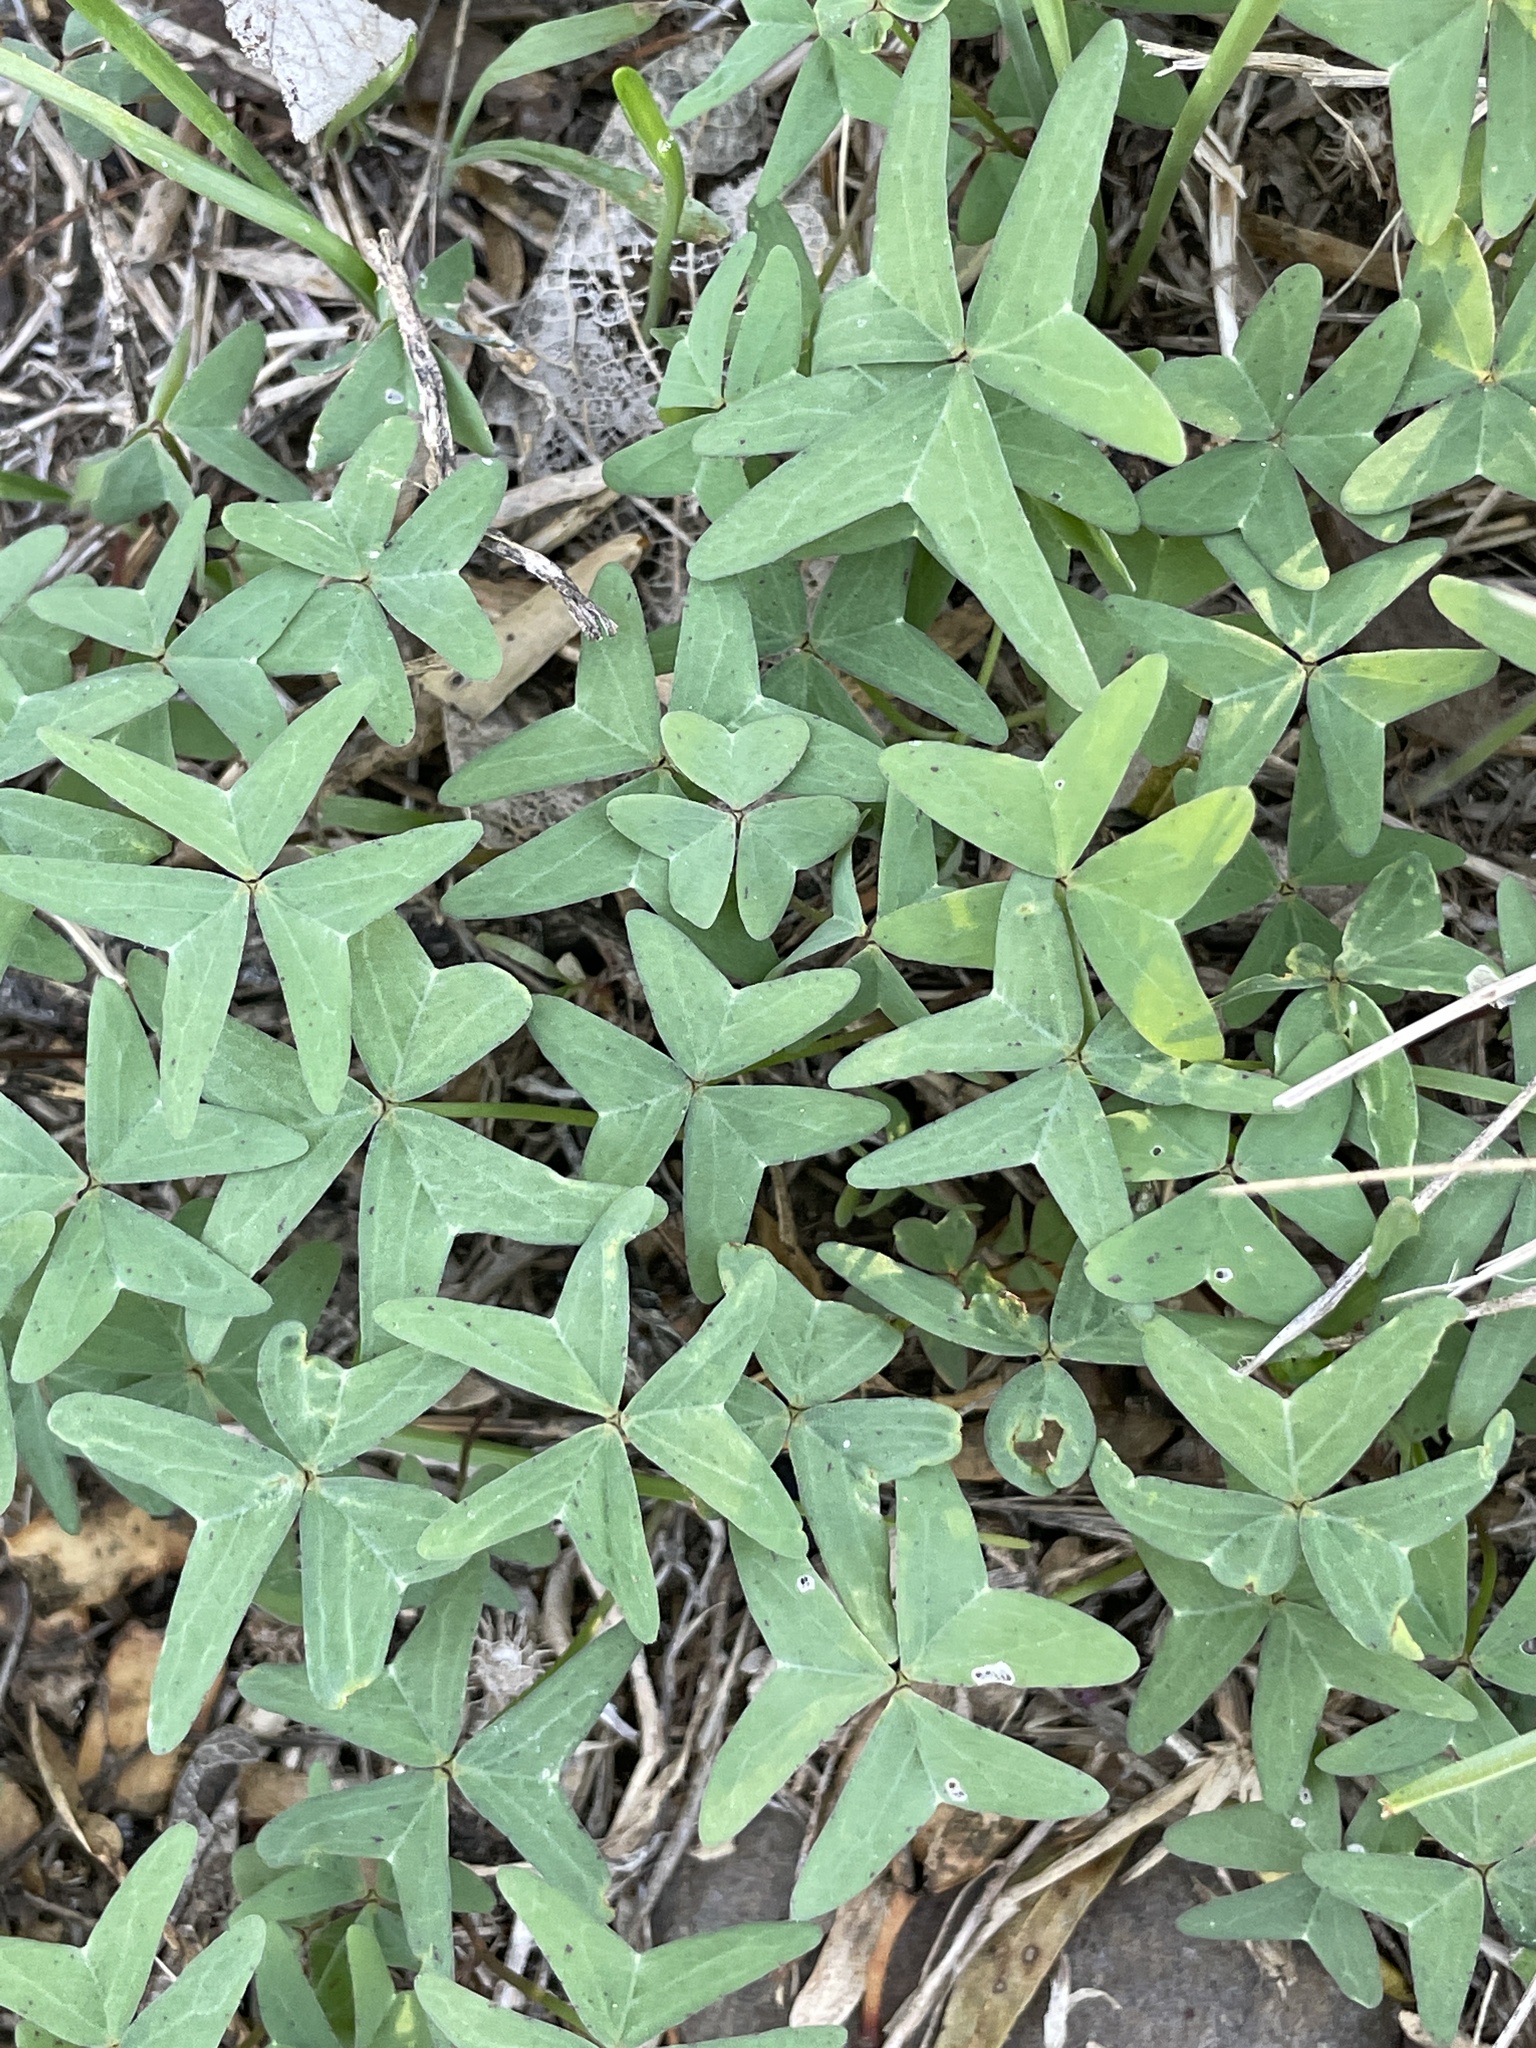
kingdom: Plantae
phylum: Tracheophyta
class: Magnoliopsida
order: Oxalidales
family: Oxalidaceae
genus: Oxalis
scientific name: Oxalis drummondii
